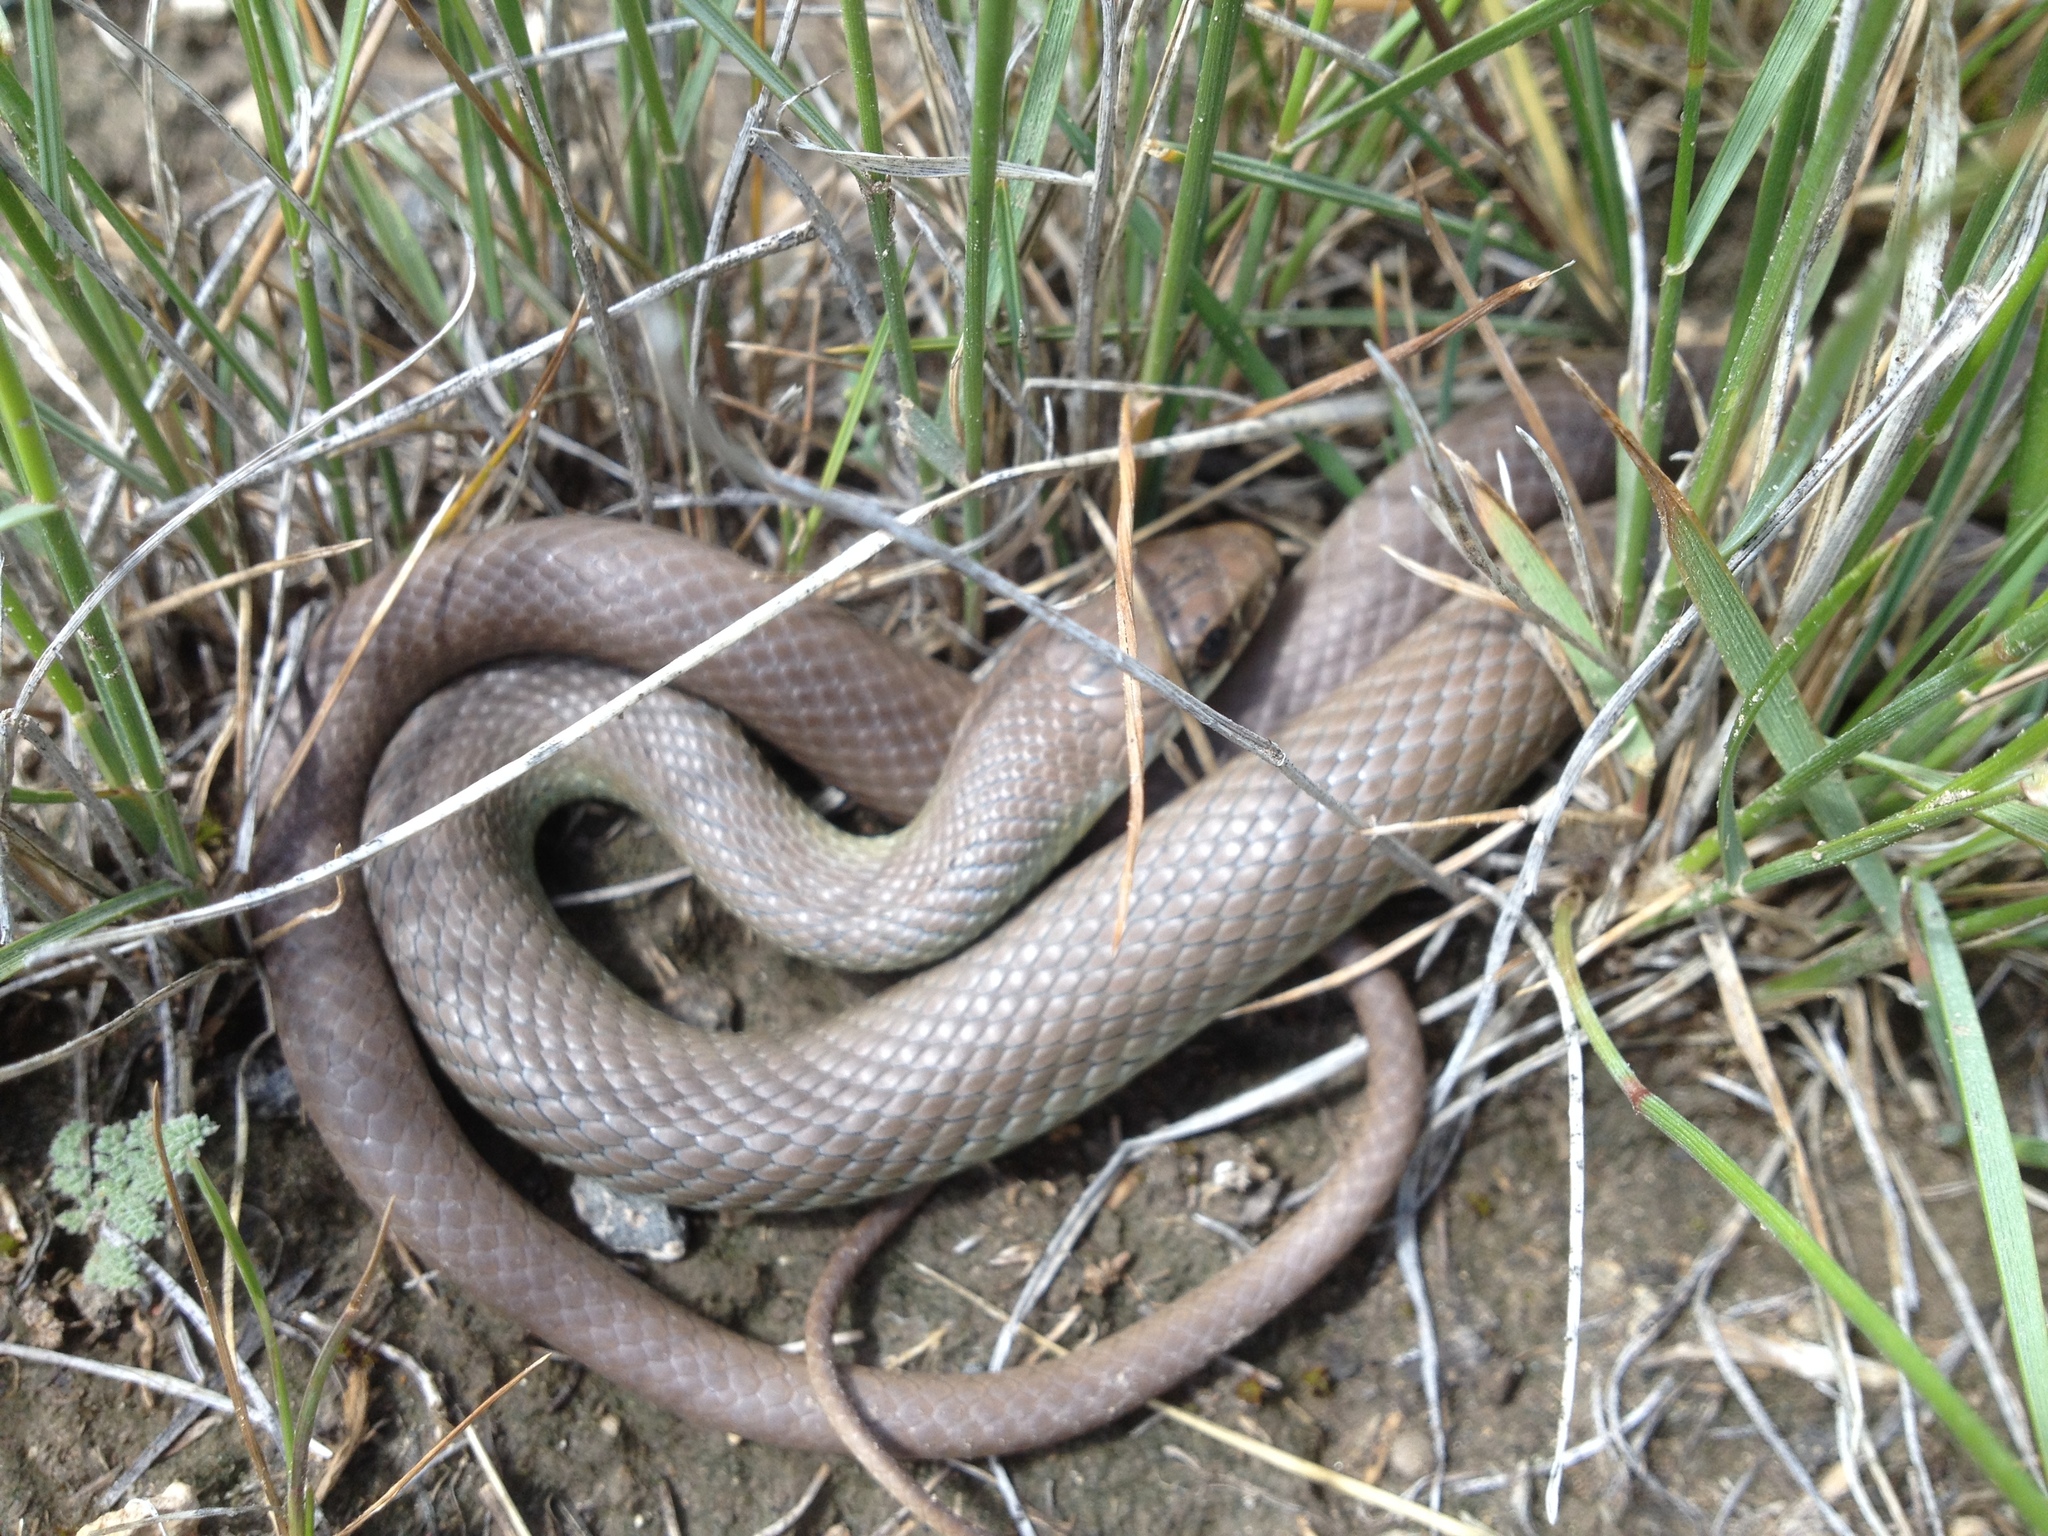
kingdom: Animalia
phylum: Chordata
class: Squamata
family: Colubridae
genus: Coluber
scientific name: Coluber constrictor
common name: Eastern racer
